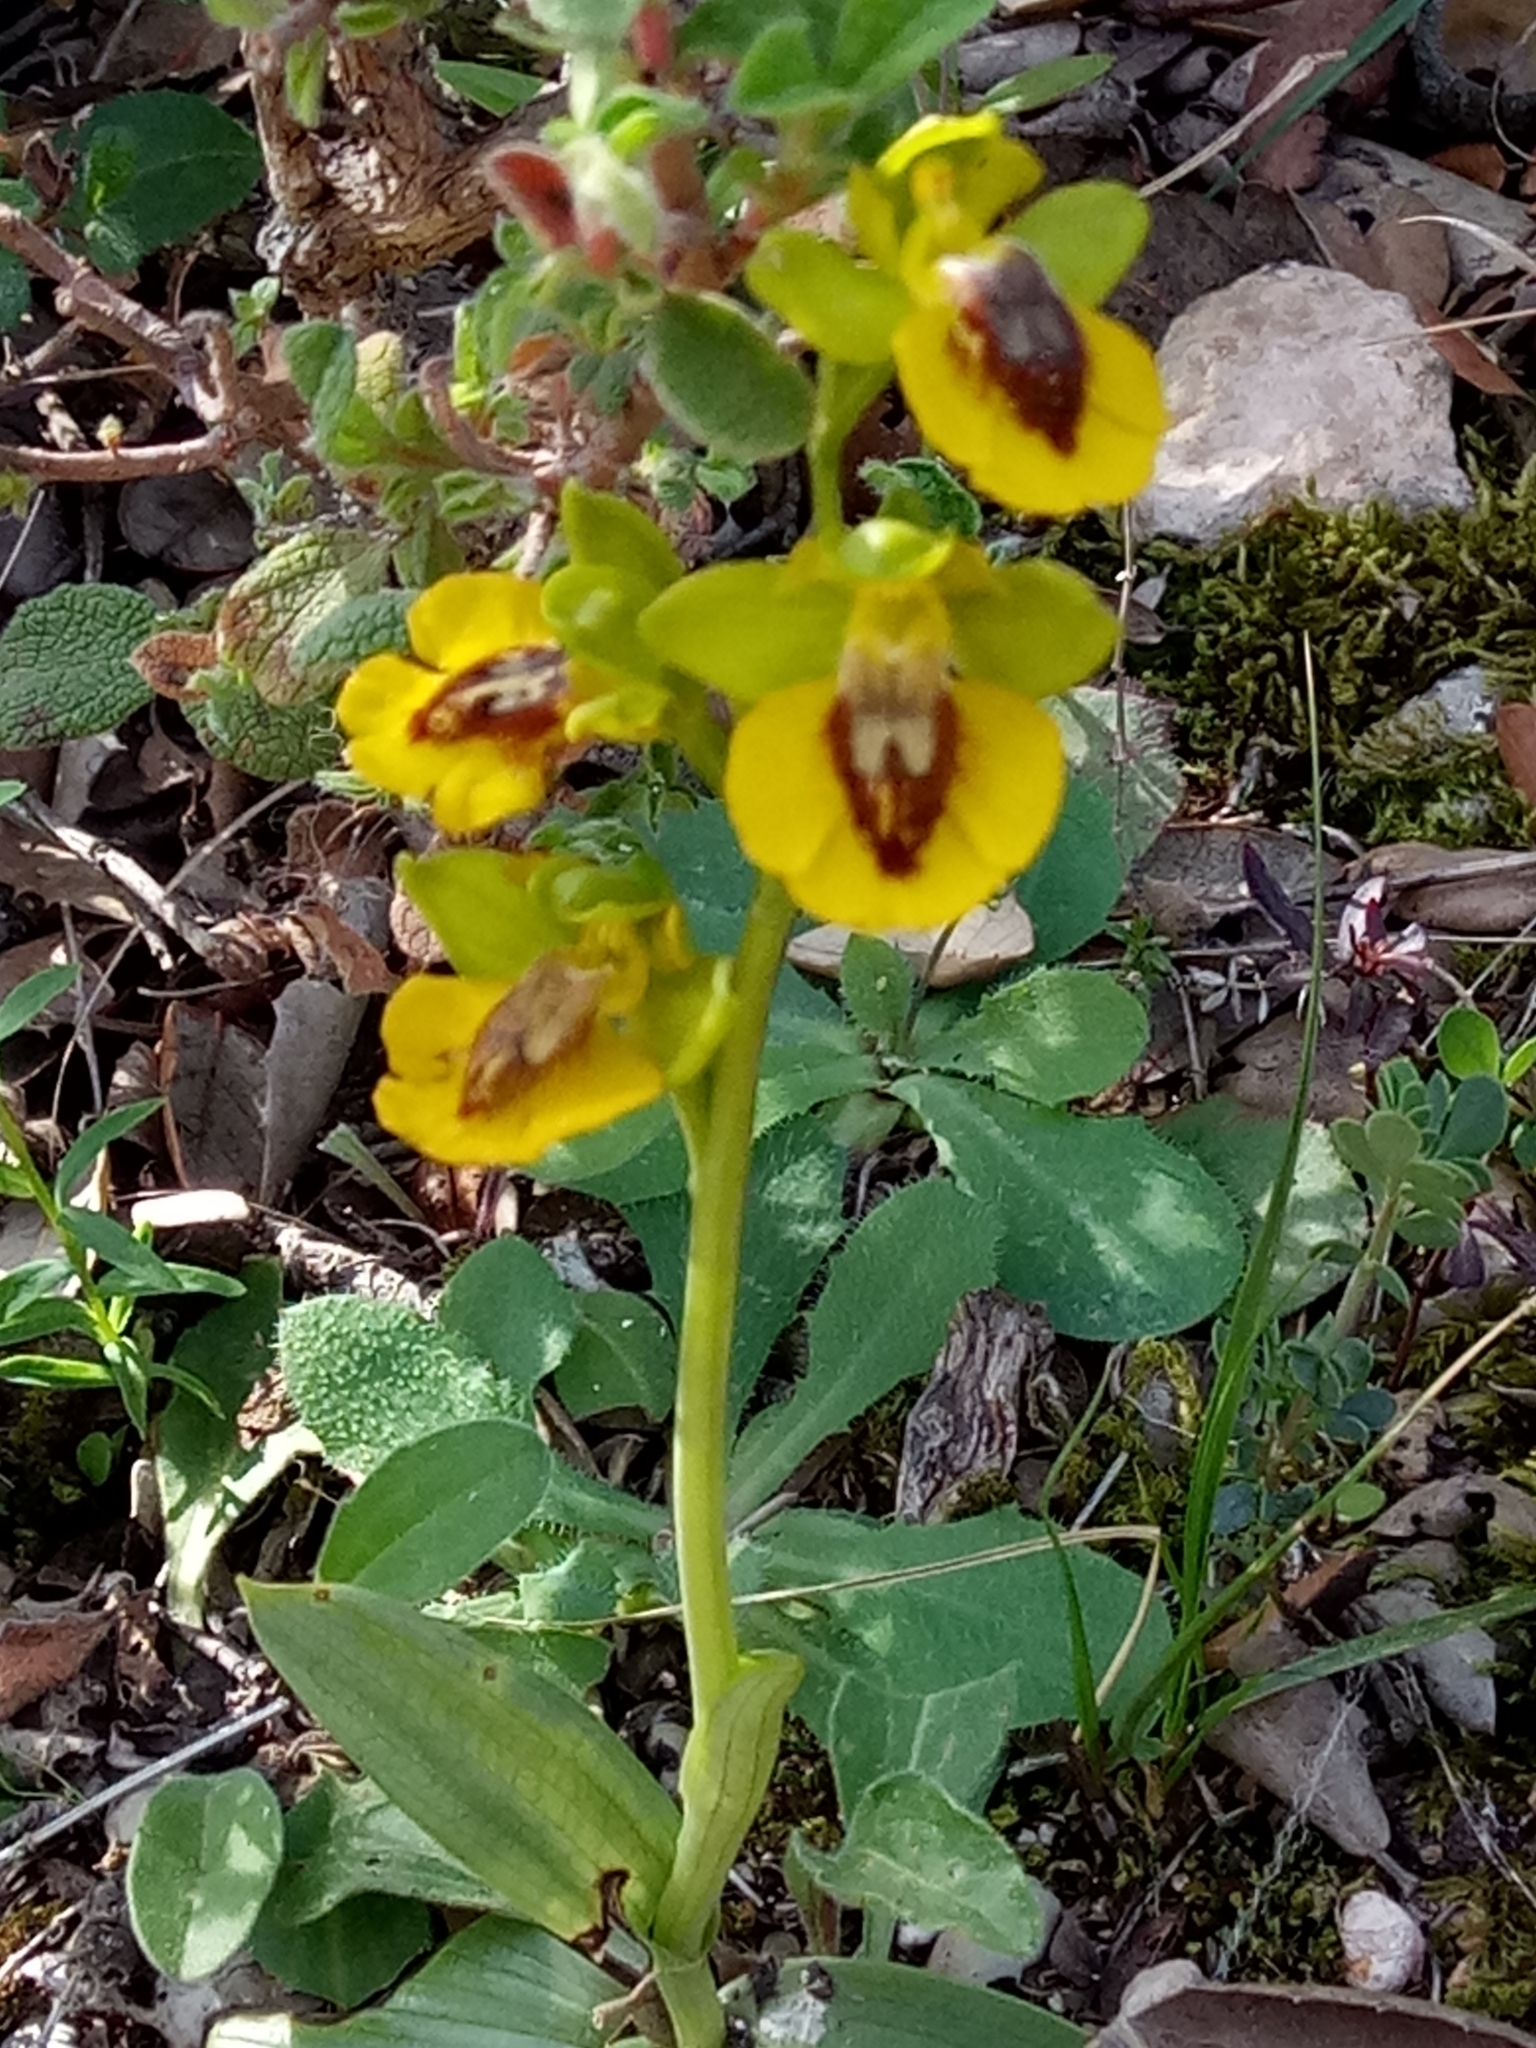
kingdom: Plantae
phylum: Tracheophyta
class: Liliopsida
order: Asparagales
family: Orchidaceae
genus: Ophrys
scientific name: Ophrys lutea
